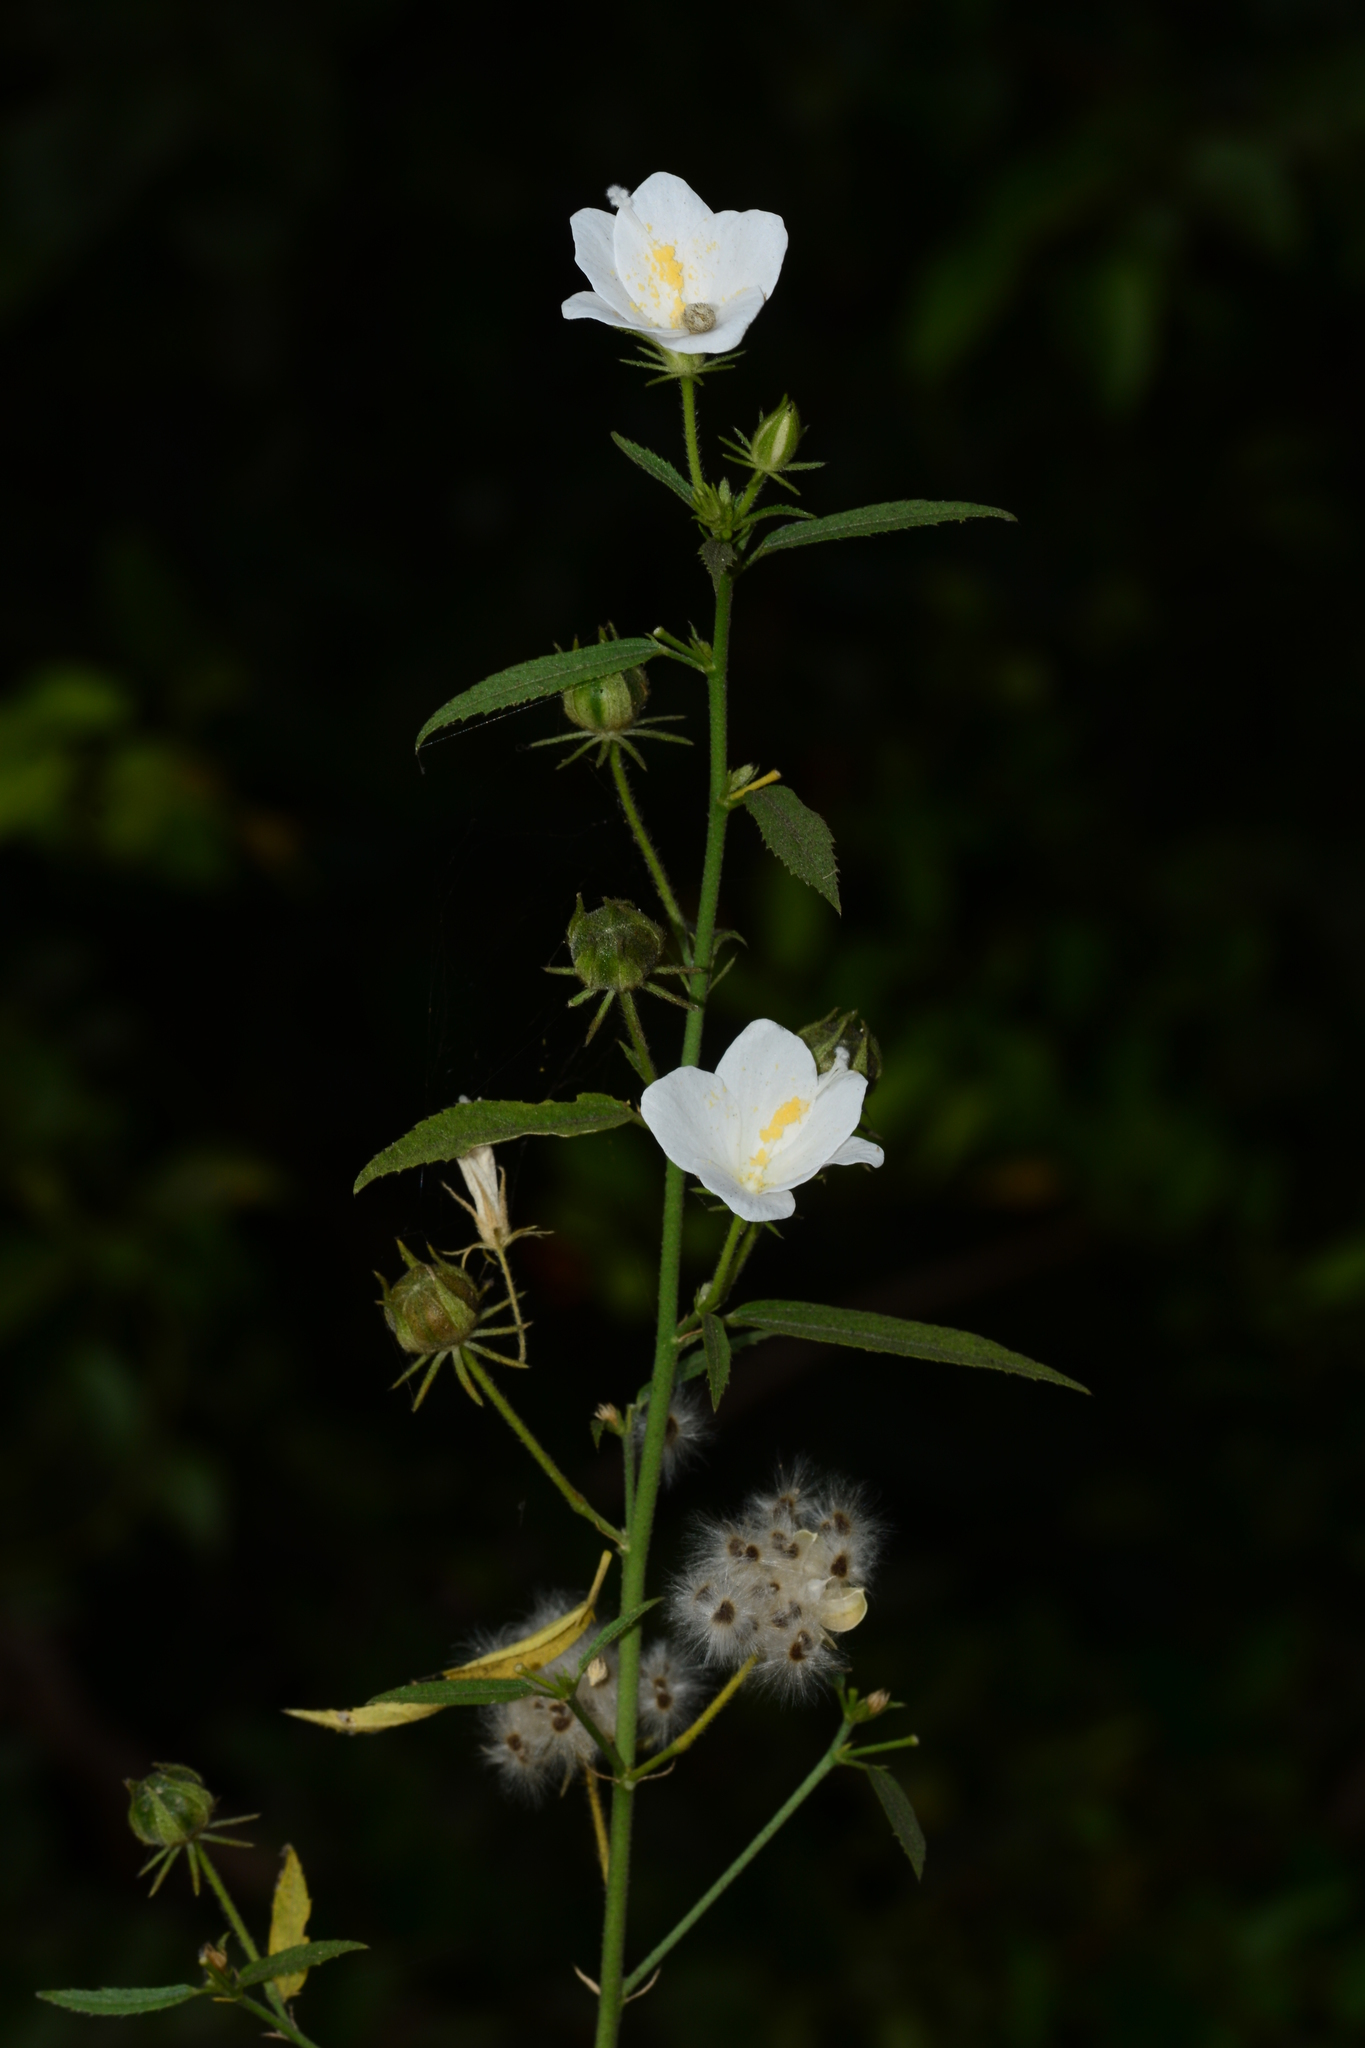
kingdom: Plantae
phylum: Tracheophyta
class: Magnoliopsida
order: Malvales
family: Malvaceae
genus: Hibiscus
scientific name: Hibiscus hirtus
